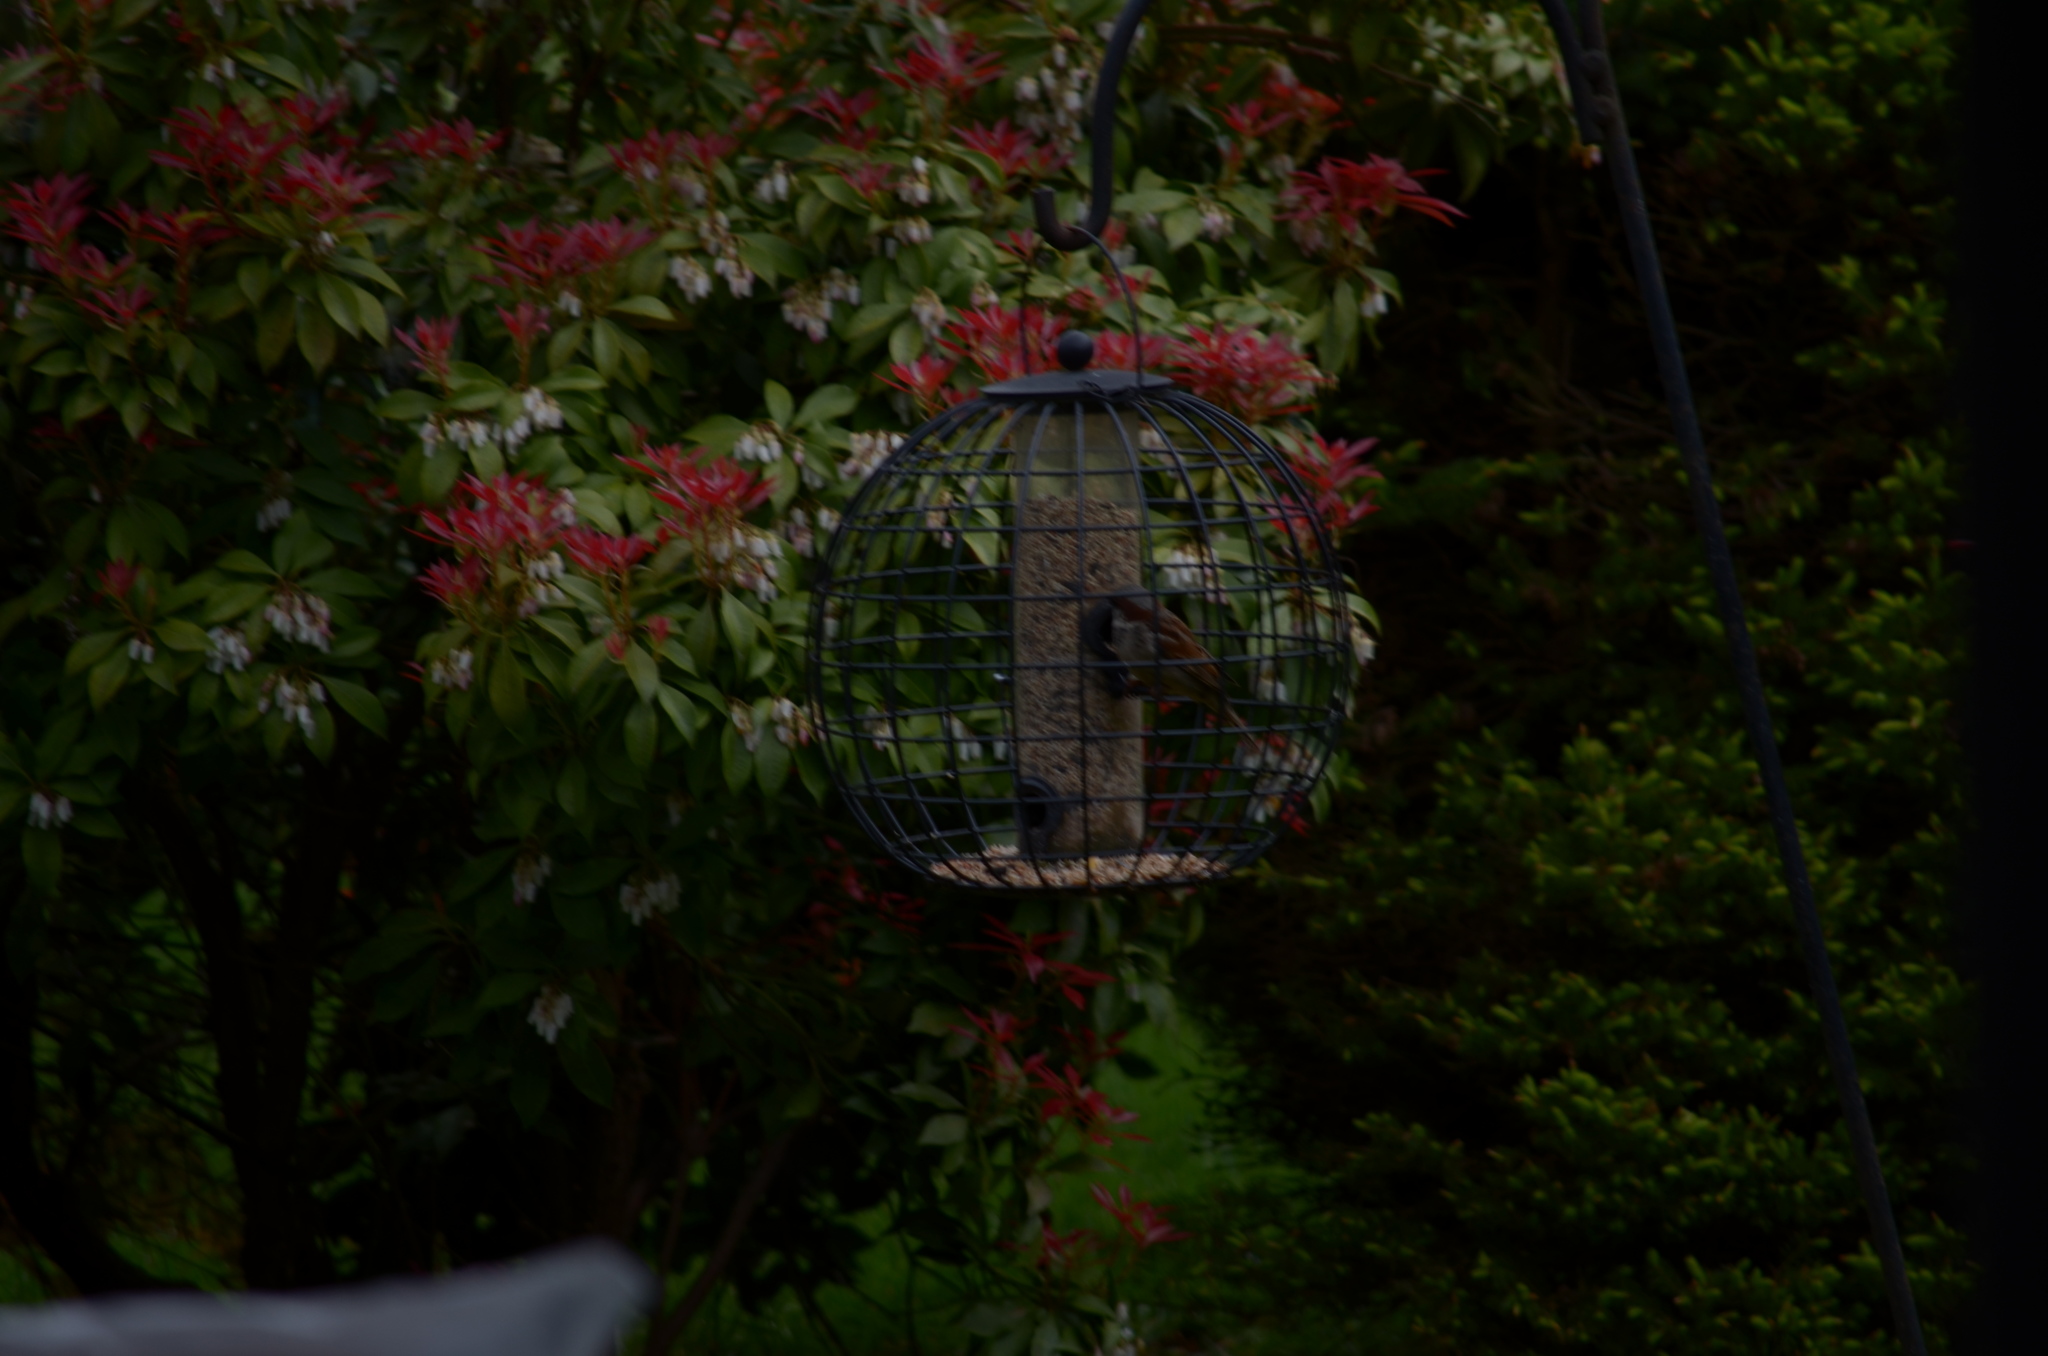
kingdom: Animalia
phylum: Chordata
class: Aves
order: Passeriformes
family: Passeridae
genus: Passer
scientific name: Passer domesticus
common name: House sparrow
